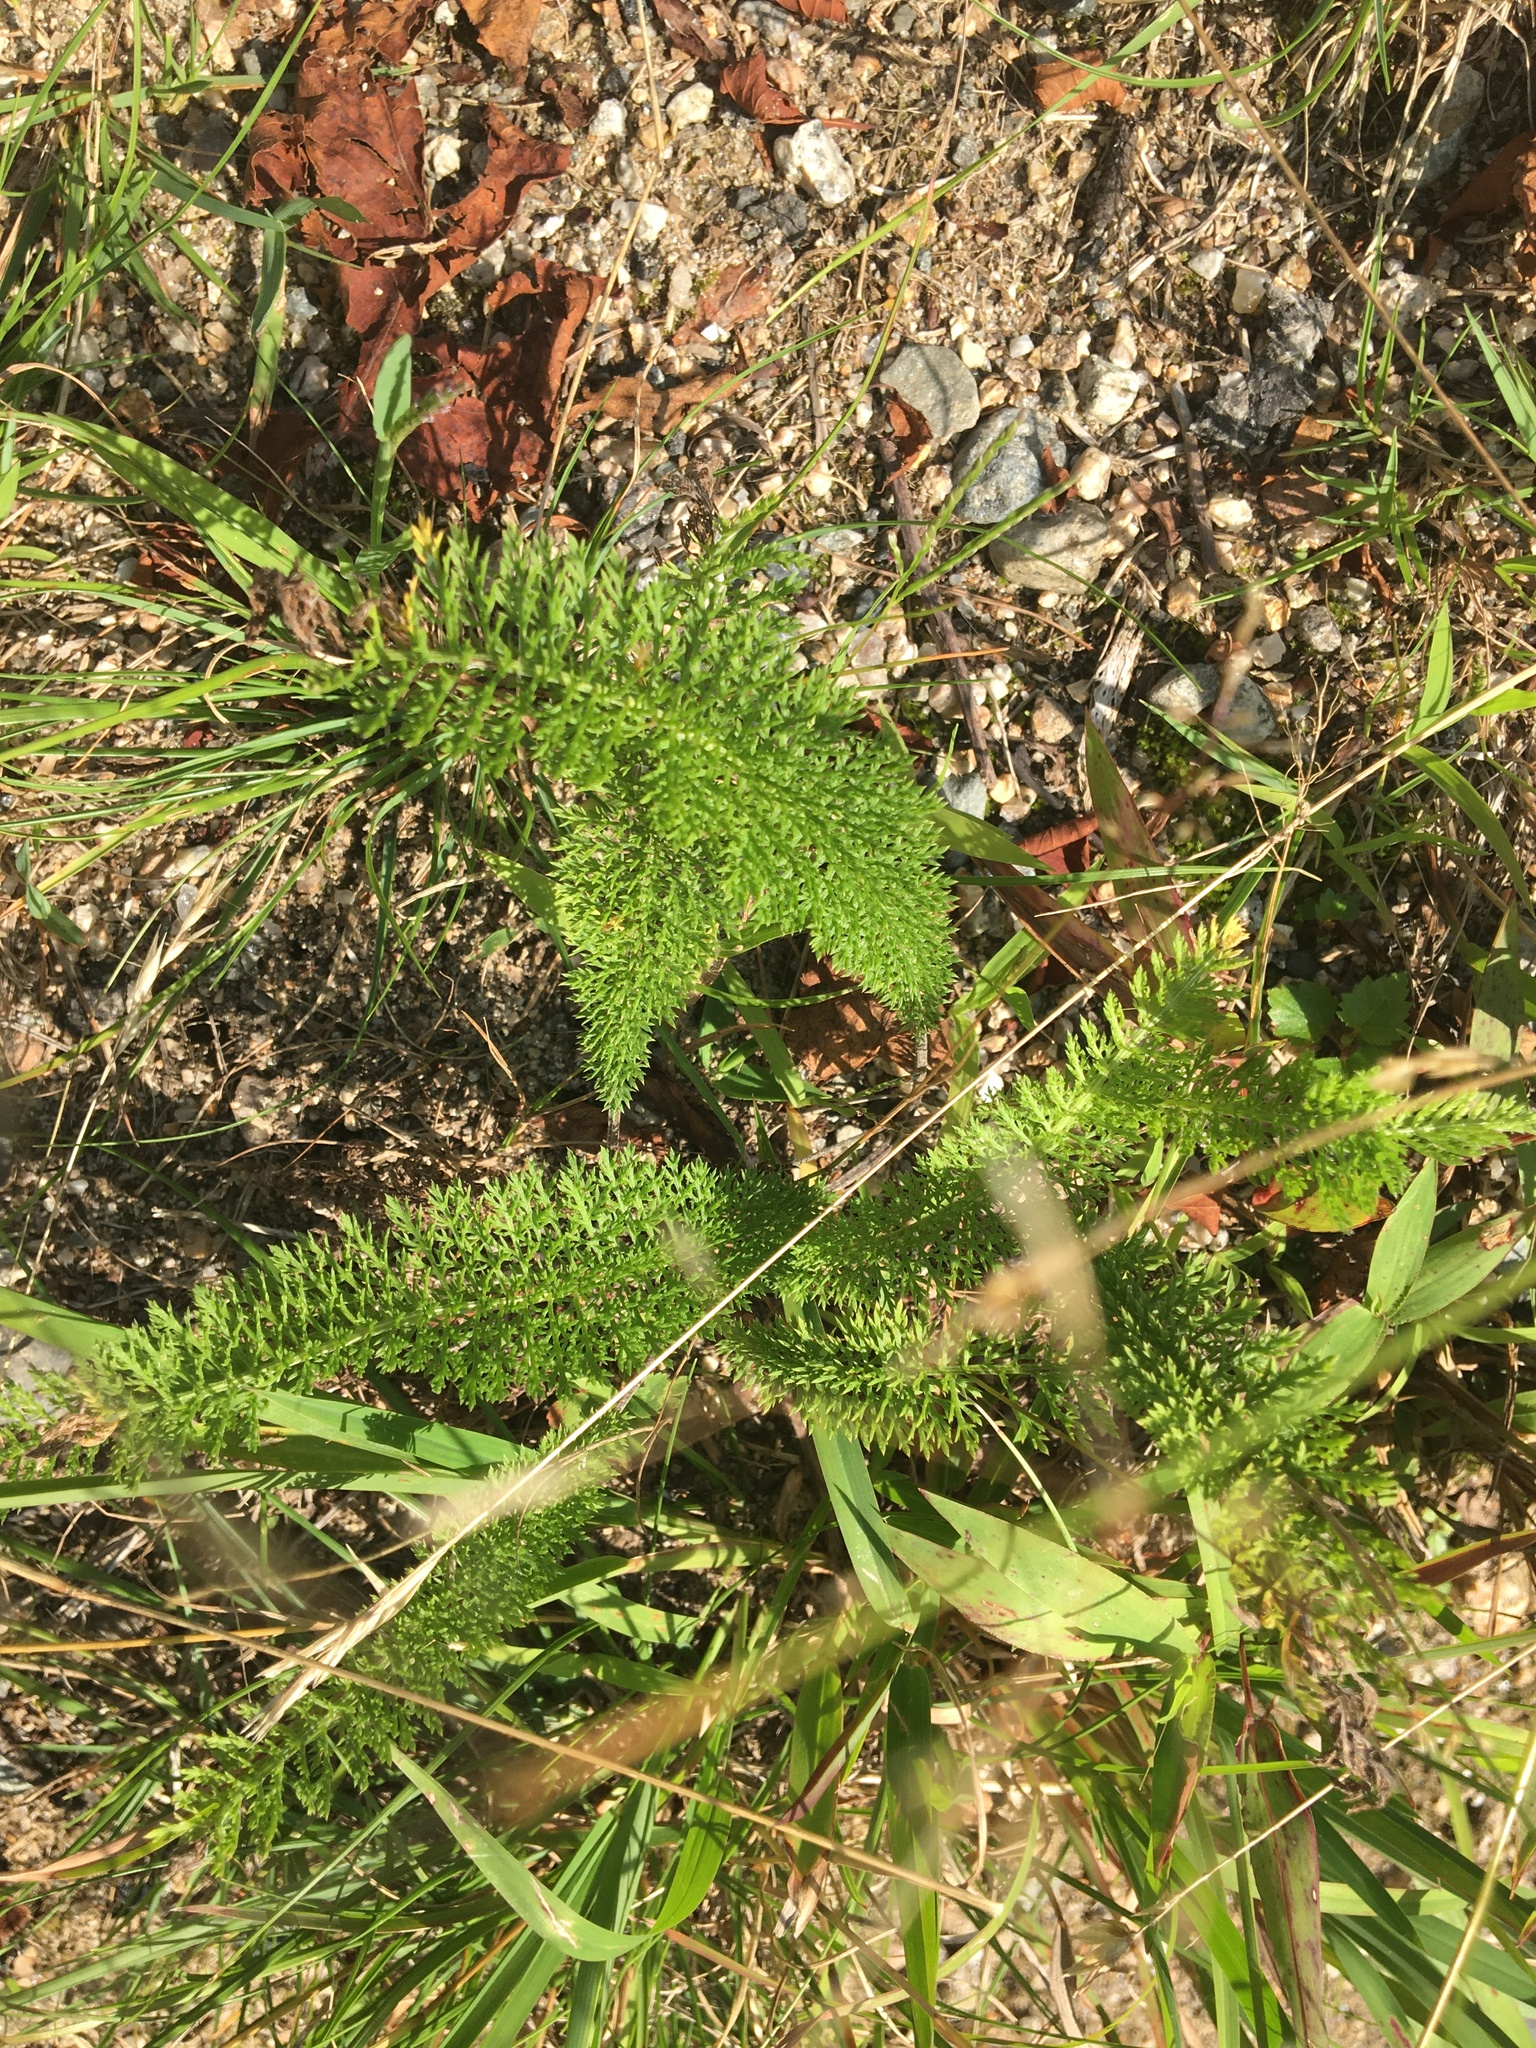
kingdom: Plantae
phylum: Tracheophyta
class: Magnoliopsida
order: Asterales
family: Asteraceae
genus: Achillea
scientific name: Achillea millefolium
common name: Yarrow
